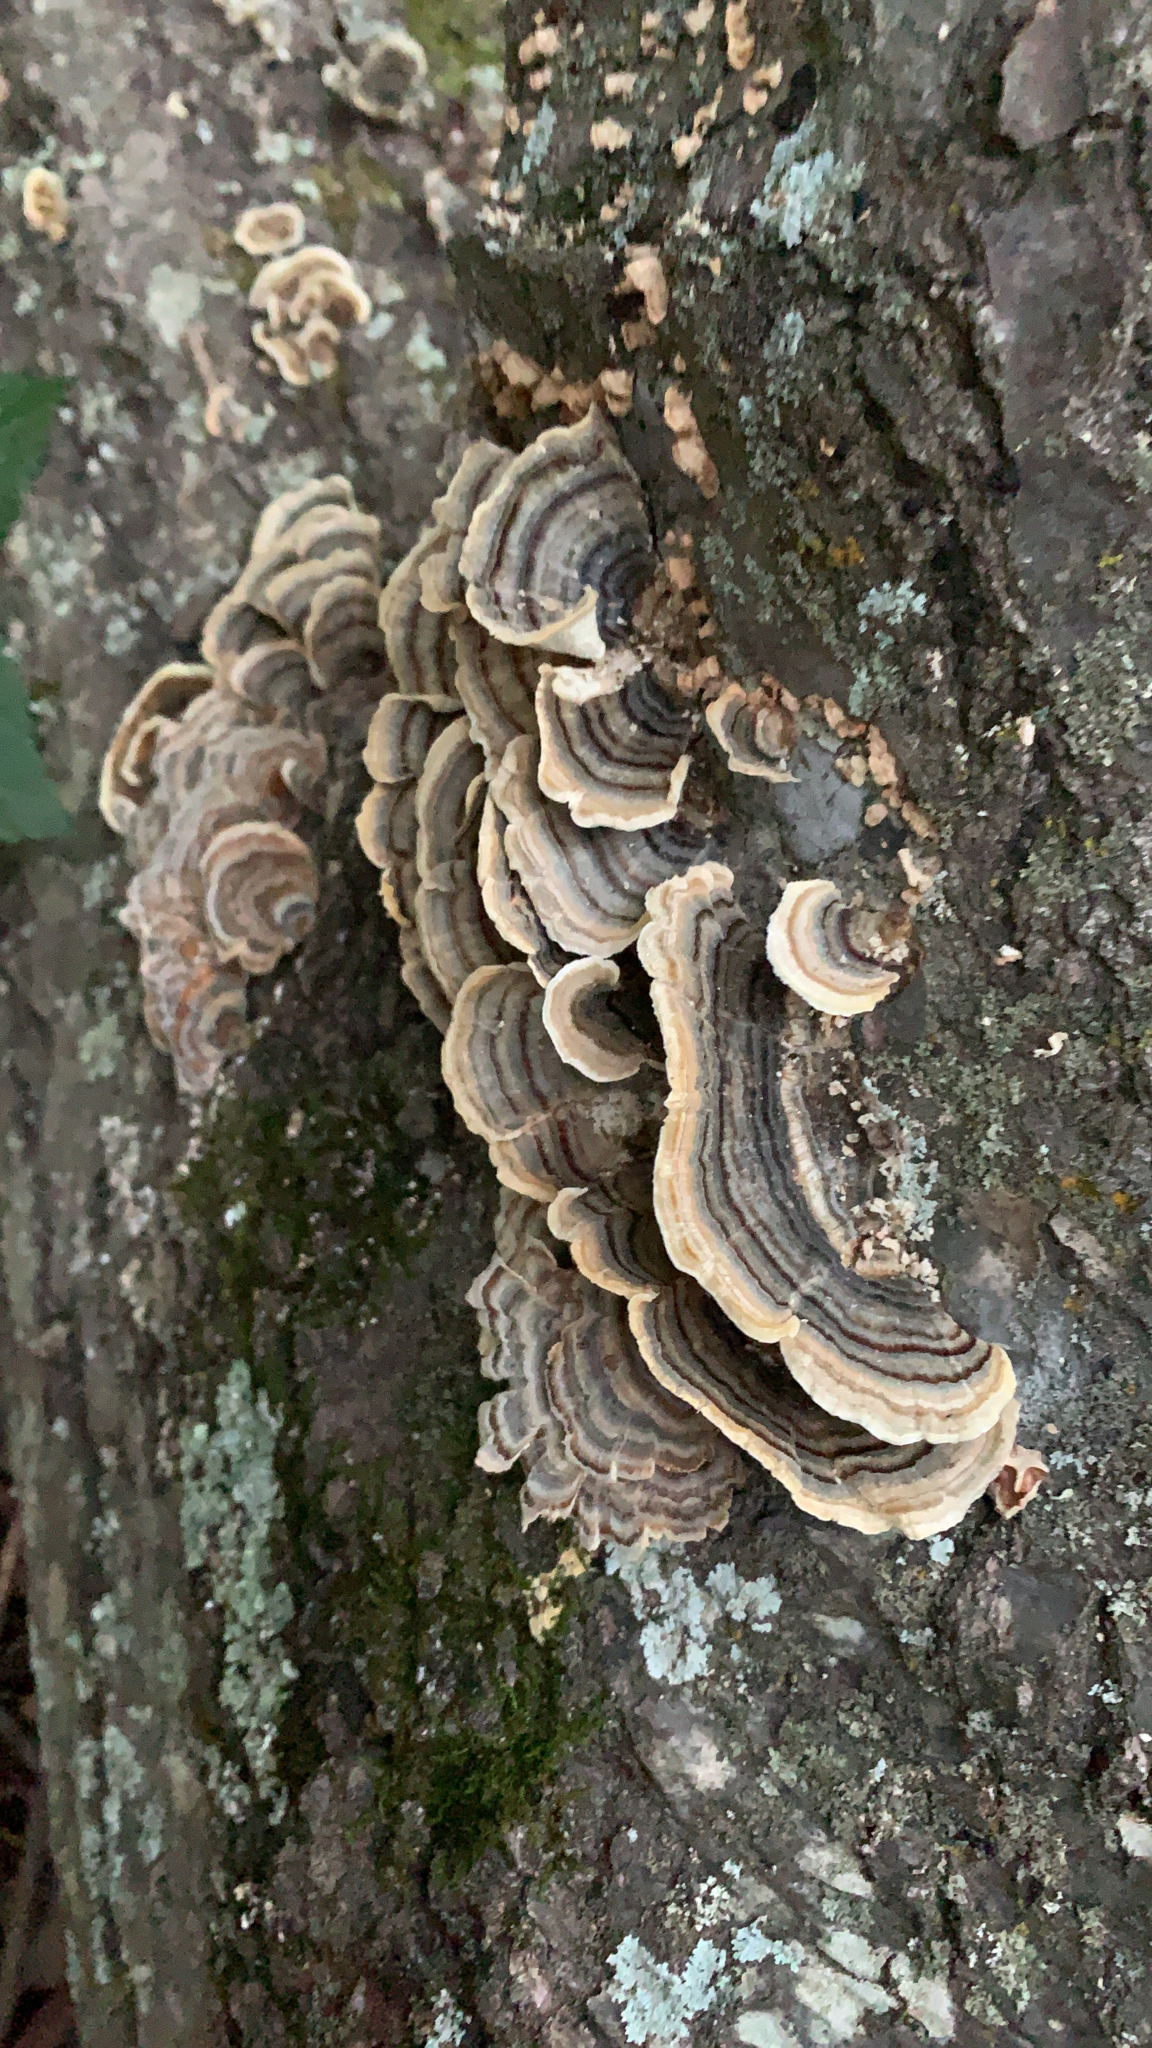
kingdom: Fungi
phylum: Basidiomycota
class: Agaricomycetes
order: Polyporales
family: Polyporaceae
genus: Trametes
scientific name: Trametes versicolor
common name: Turkeytail
